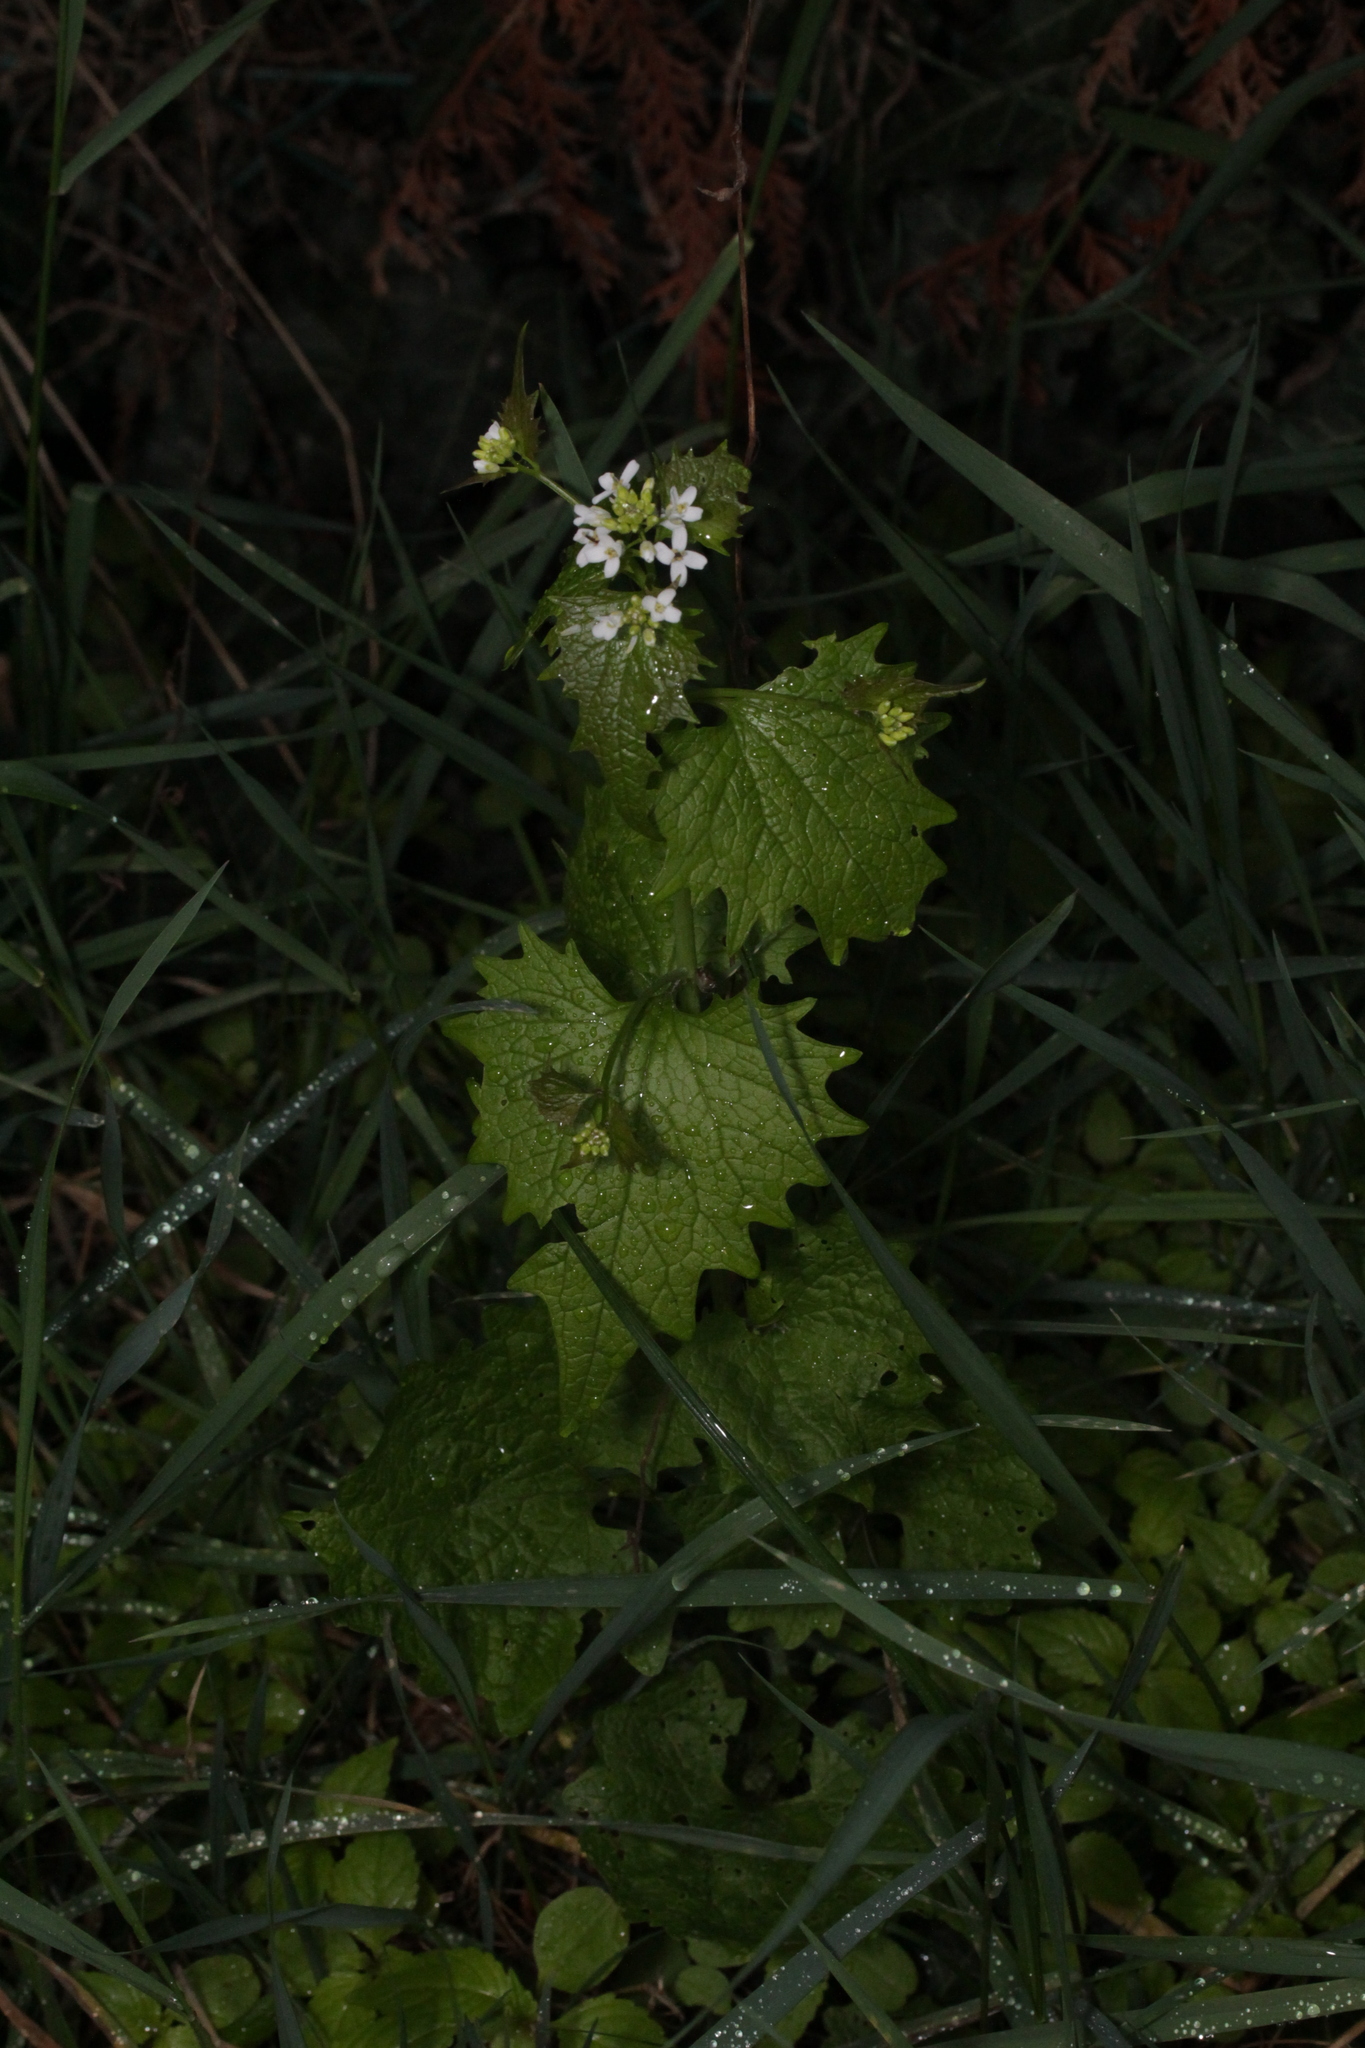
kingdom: Plantae
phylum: Tracheophyta
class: Magnoliopsida
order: Brassicales
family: Brassicaceae
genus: Alliaria
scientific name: Alliaria petiolata
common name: Garlic mustard
